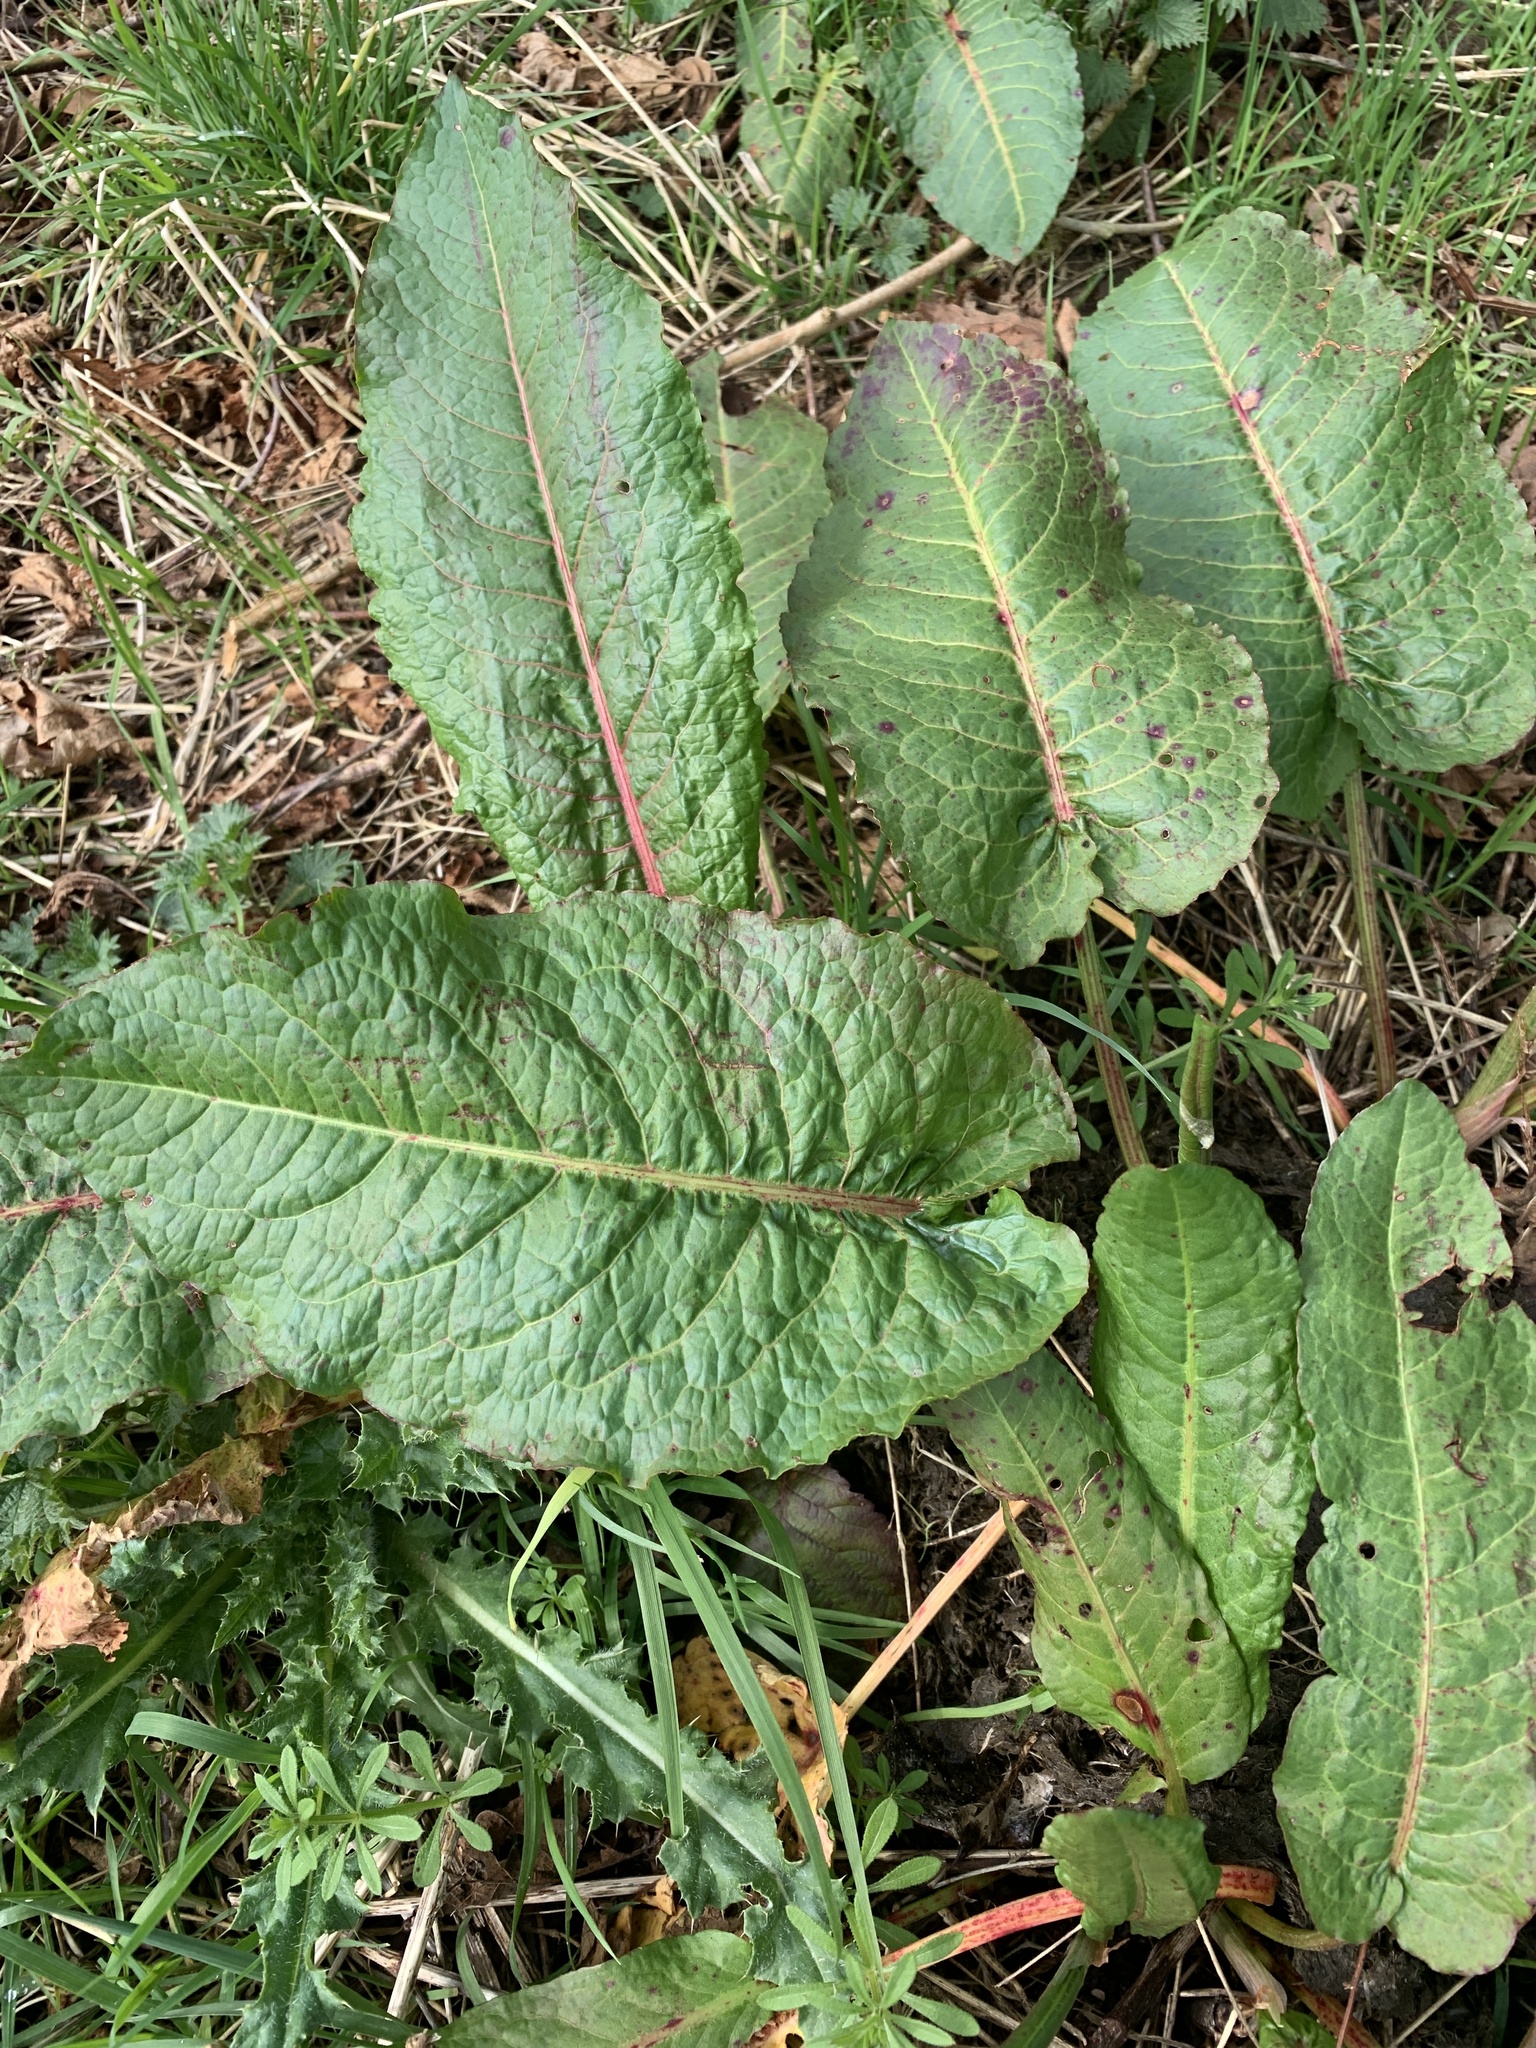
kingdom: Plantae
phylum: Tracheophyta
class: Magnoliopsida
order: Caryophyllales
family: Polygonaceae
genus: Rumex
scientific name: Rumex obtusifolius
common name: Bitter dock
